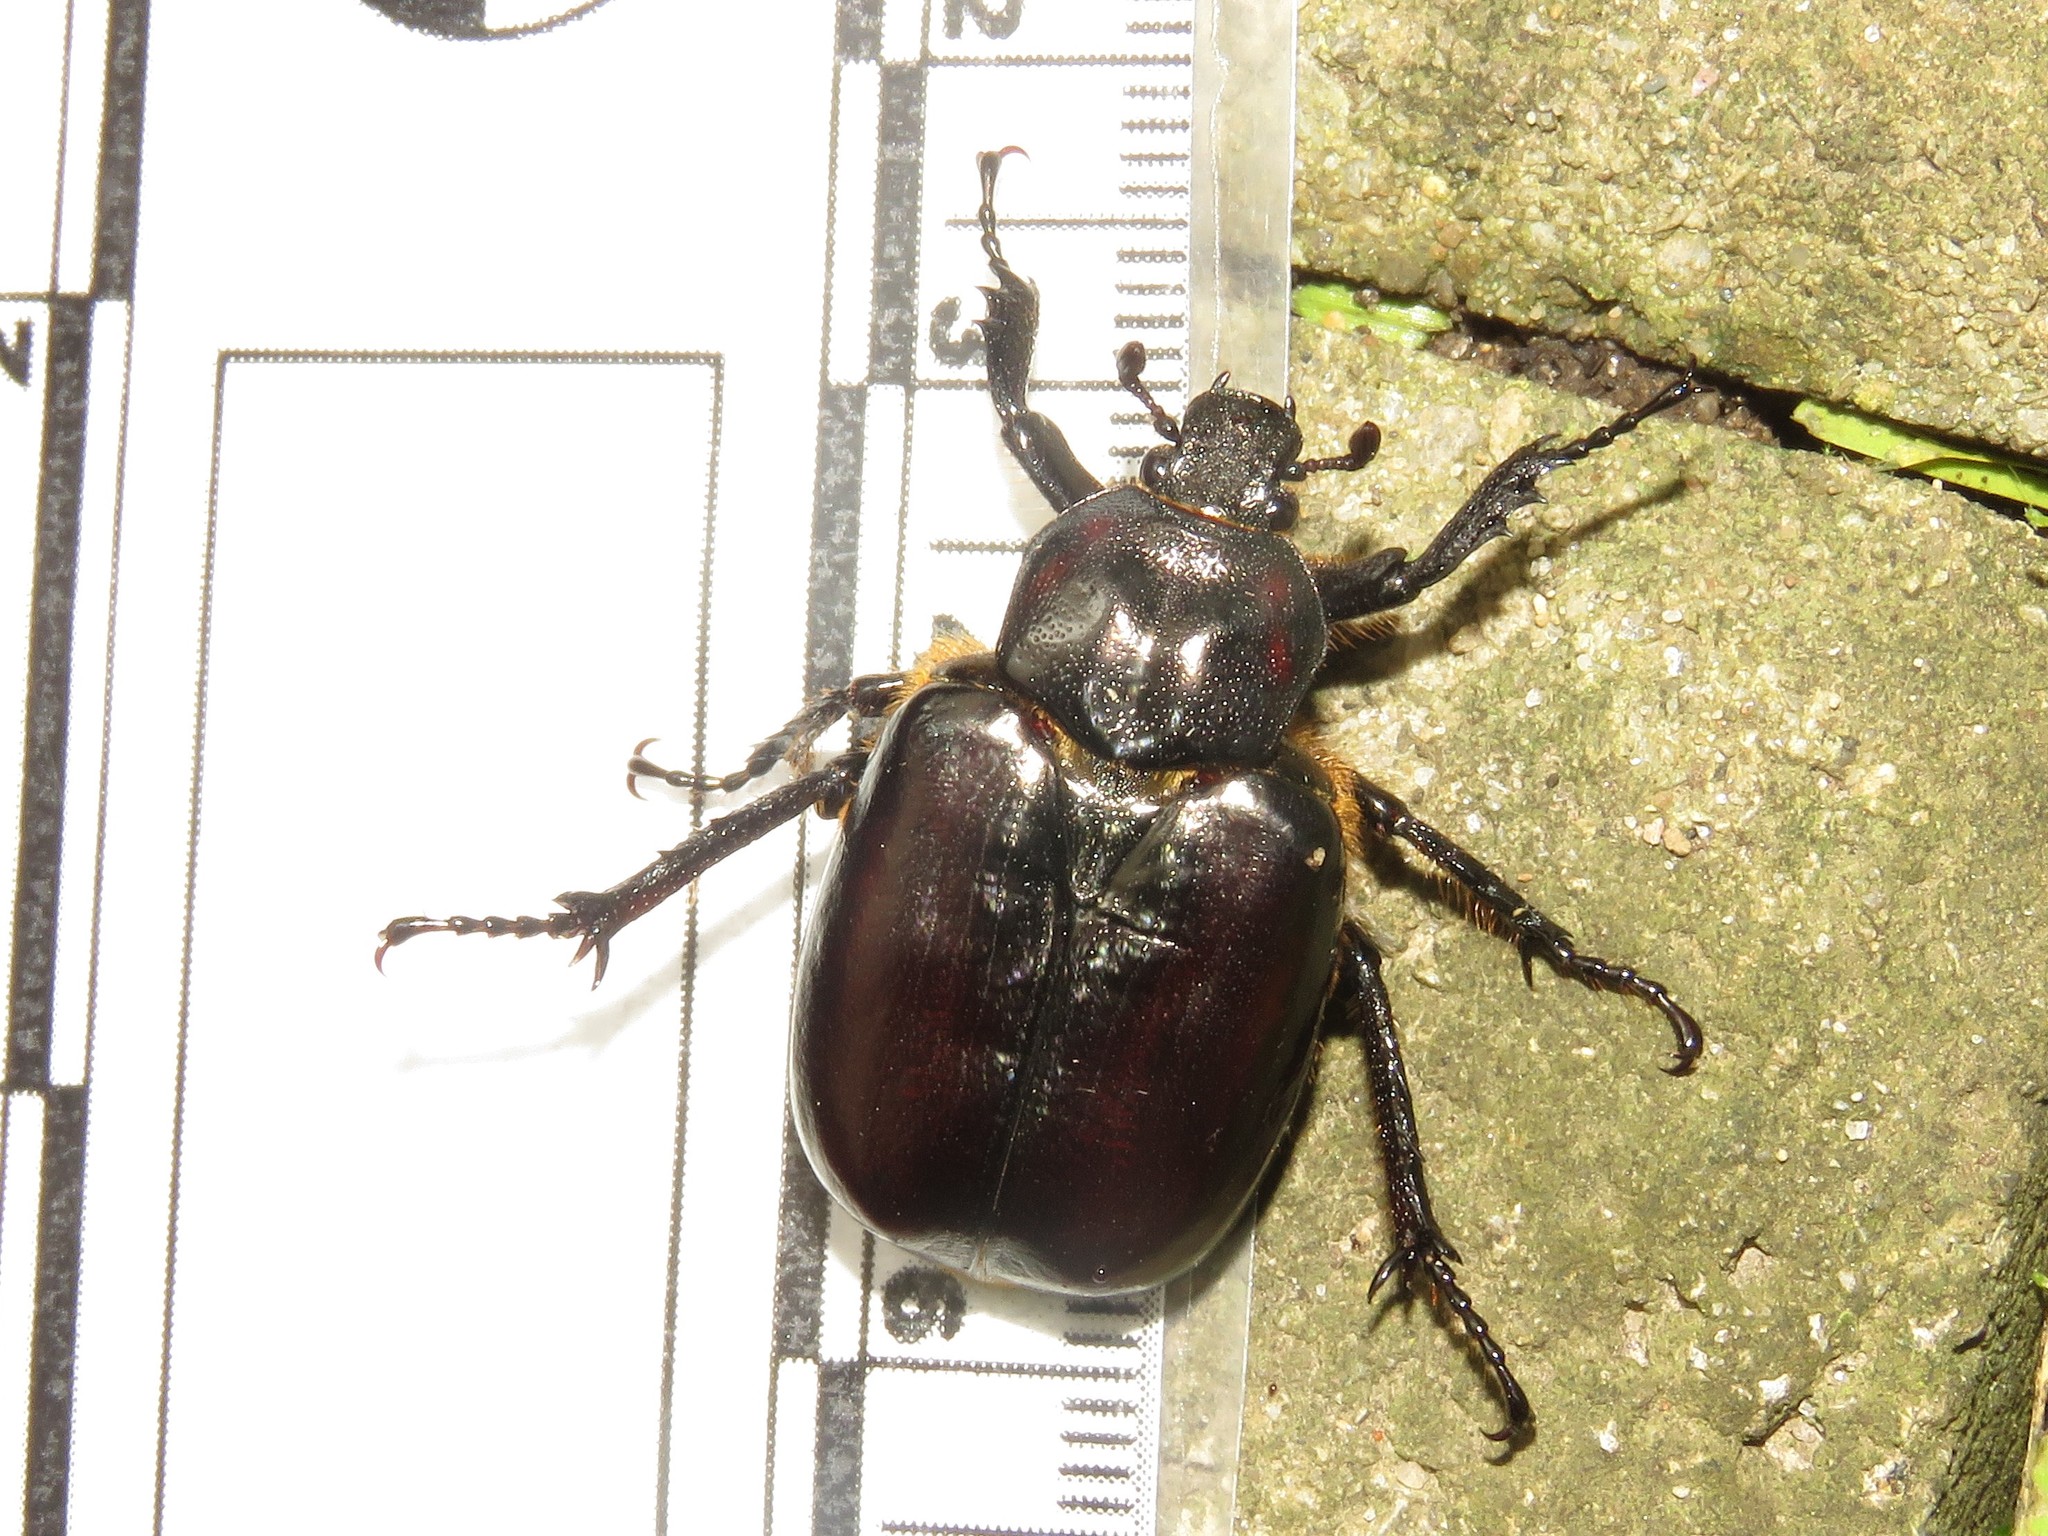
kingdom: Animalia
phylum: Arthropoda
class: Insecta
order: Coleoptera
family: Scarabaeidae
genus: Osmoderma
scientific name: Osmoderma eremicola
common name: Hermit flower beetle
